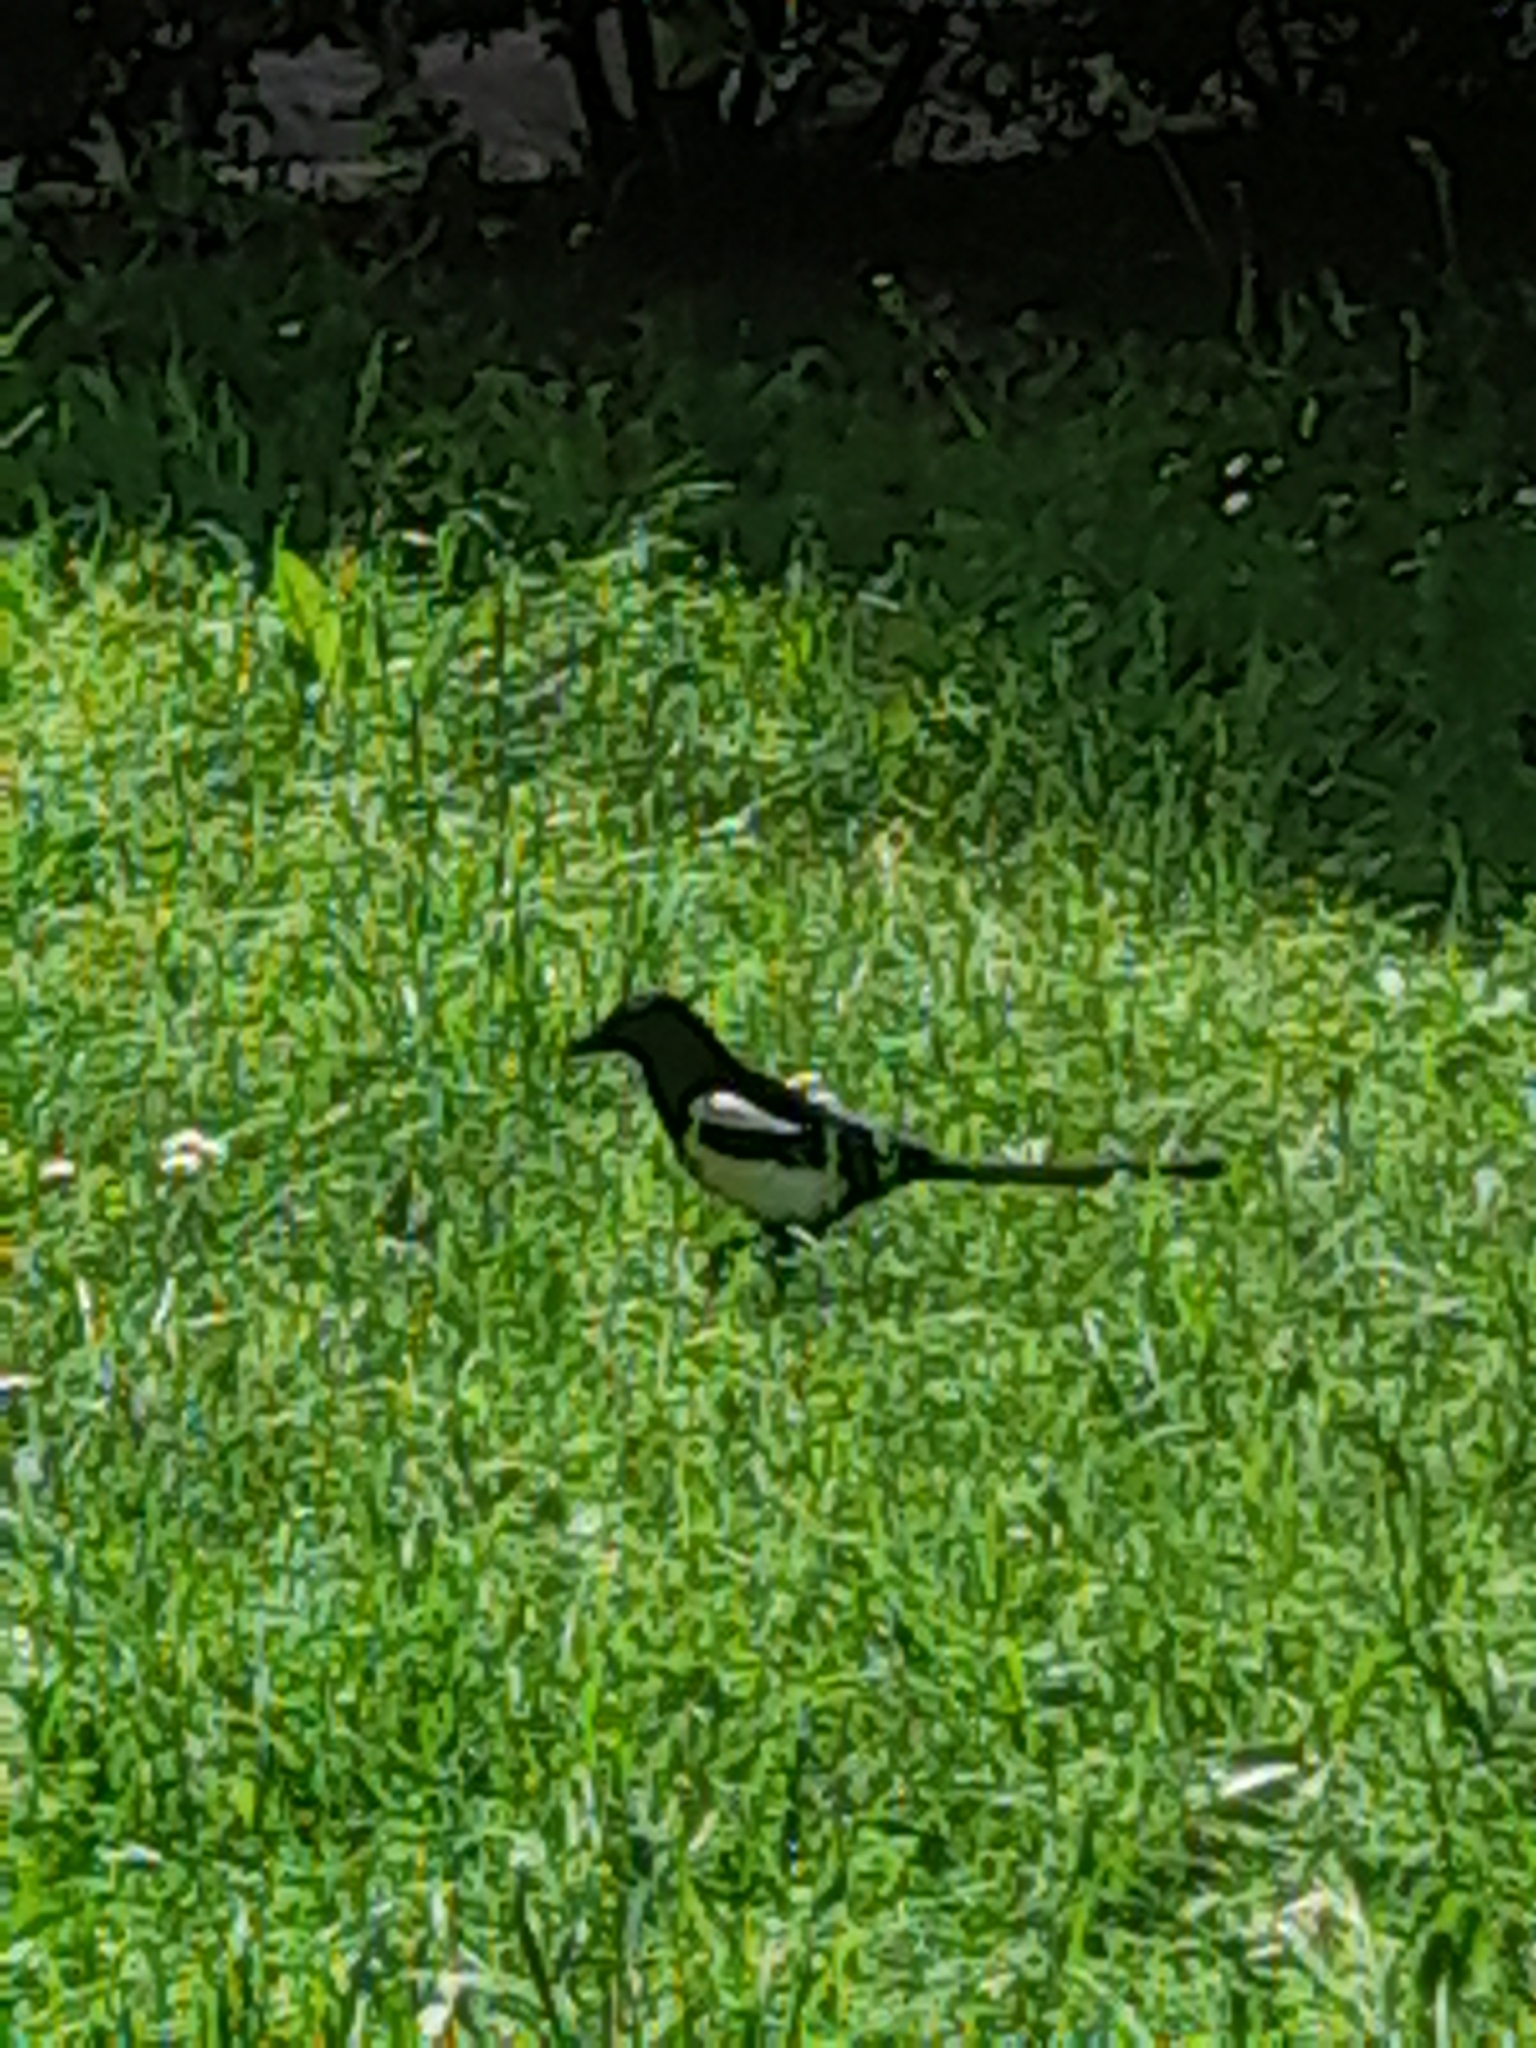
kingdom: Animalia
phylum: Chordata
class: Aves
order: Passeriformes
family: Corvidae
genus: Pica
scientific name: Pica pica
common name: Eurasian magpie
